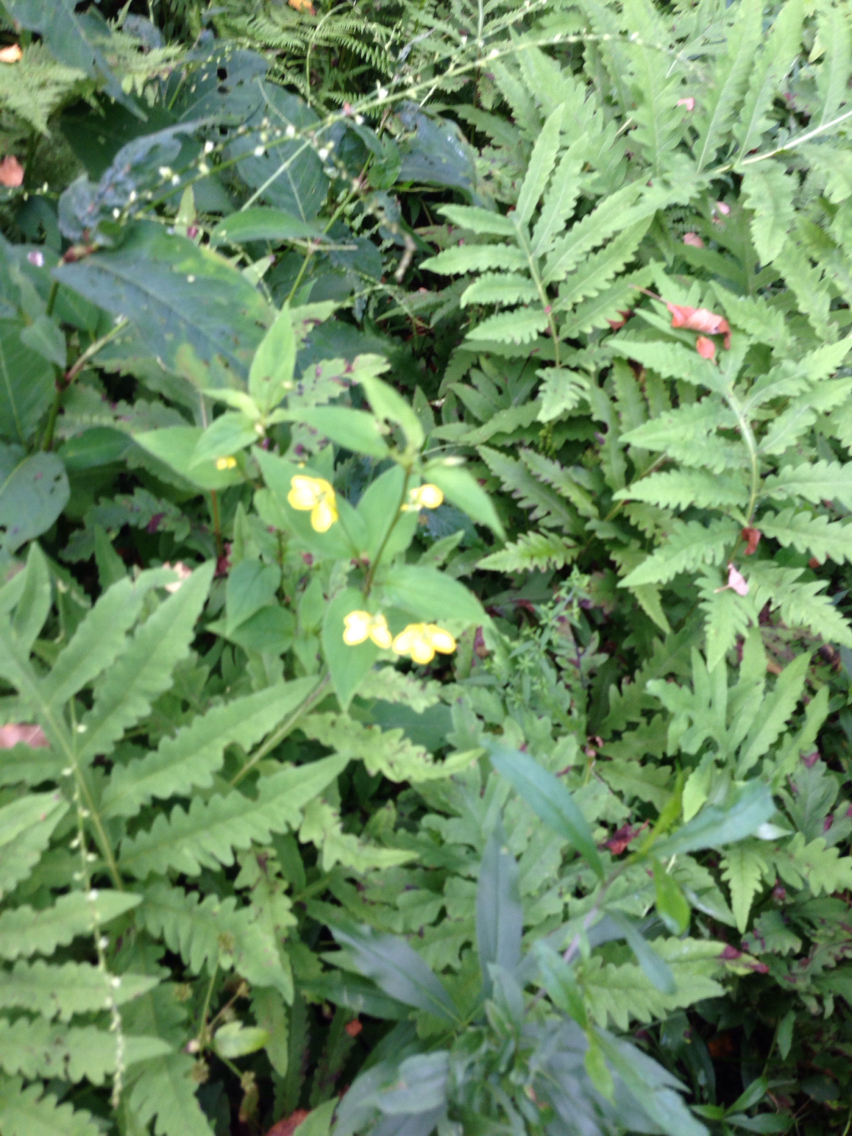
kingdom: Plantae
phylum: Tracheophyta
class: Magnoliopsida
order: Ericales
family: Primulaceae
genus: Lysimachia
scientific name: Lysimachia ciliata
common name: Fringed loosestrife
